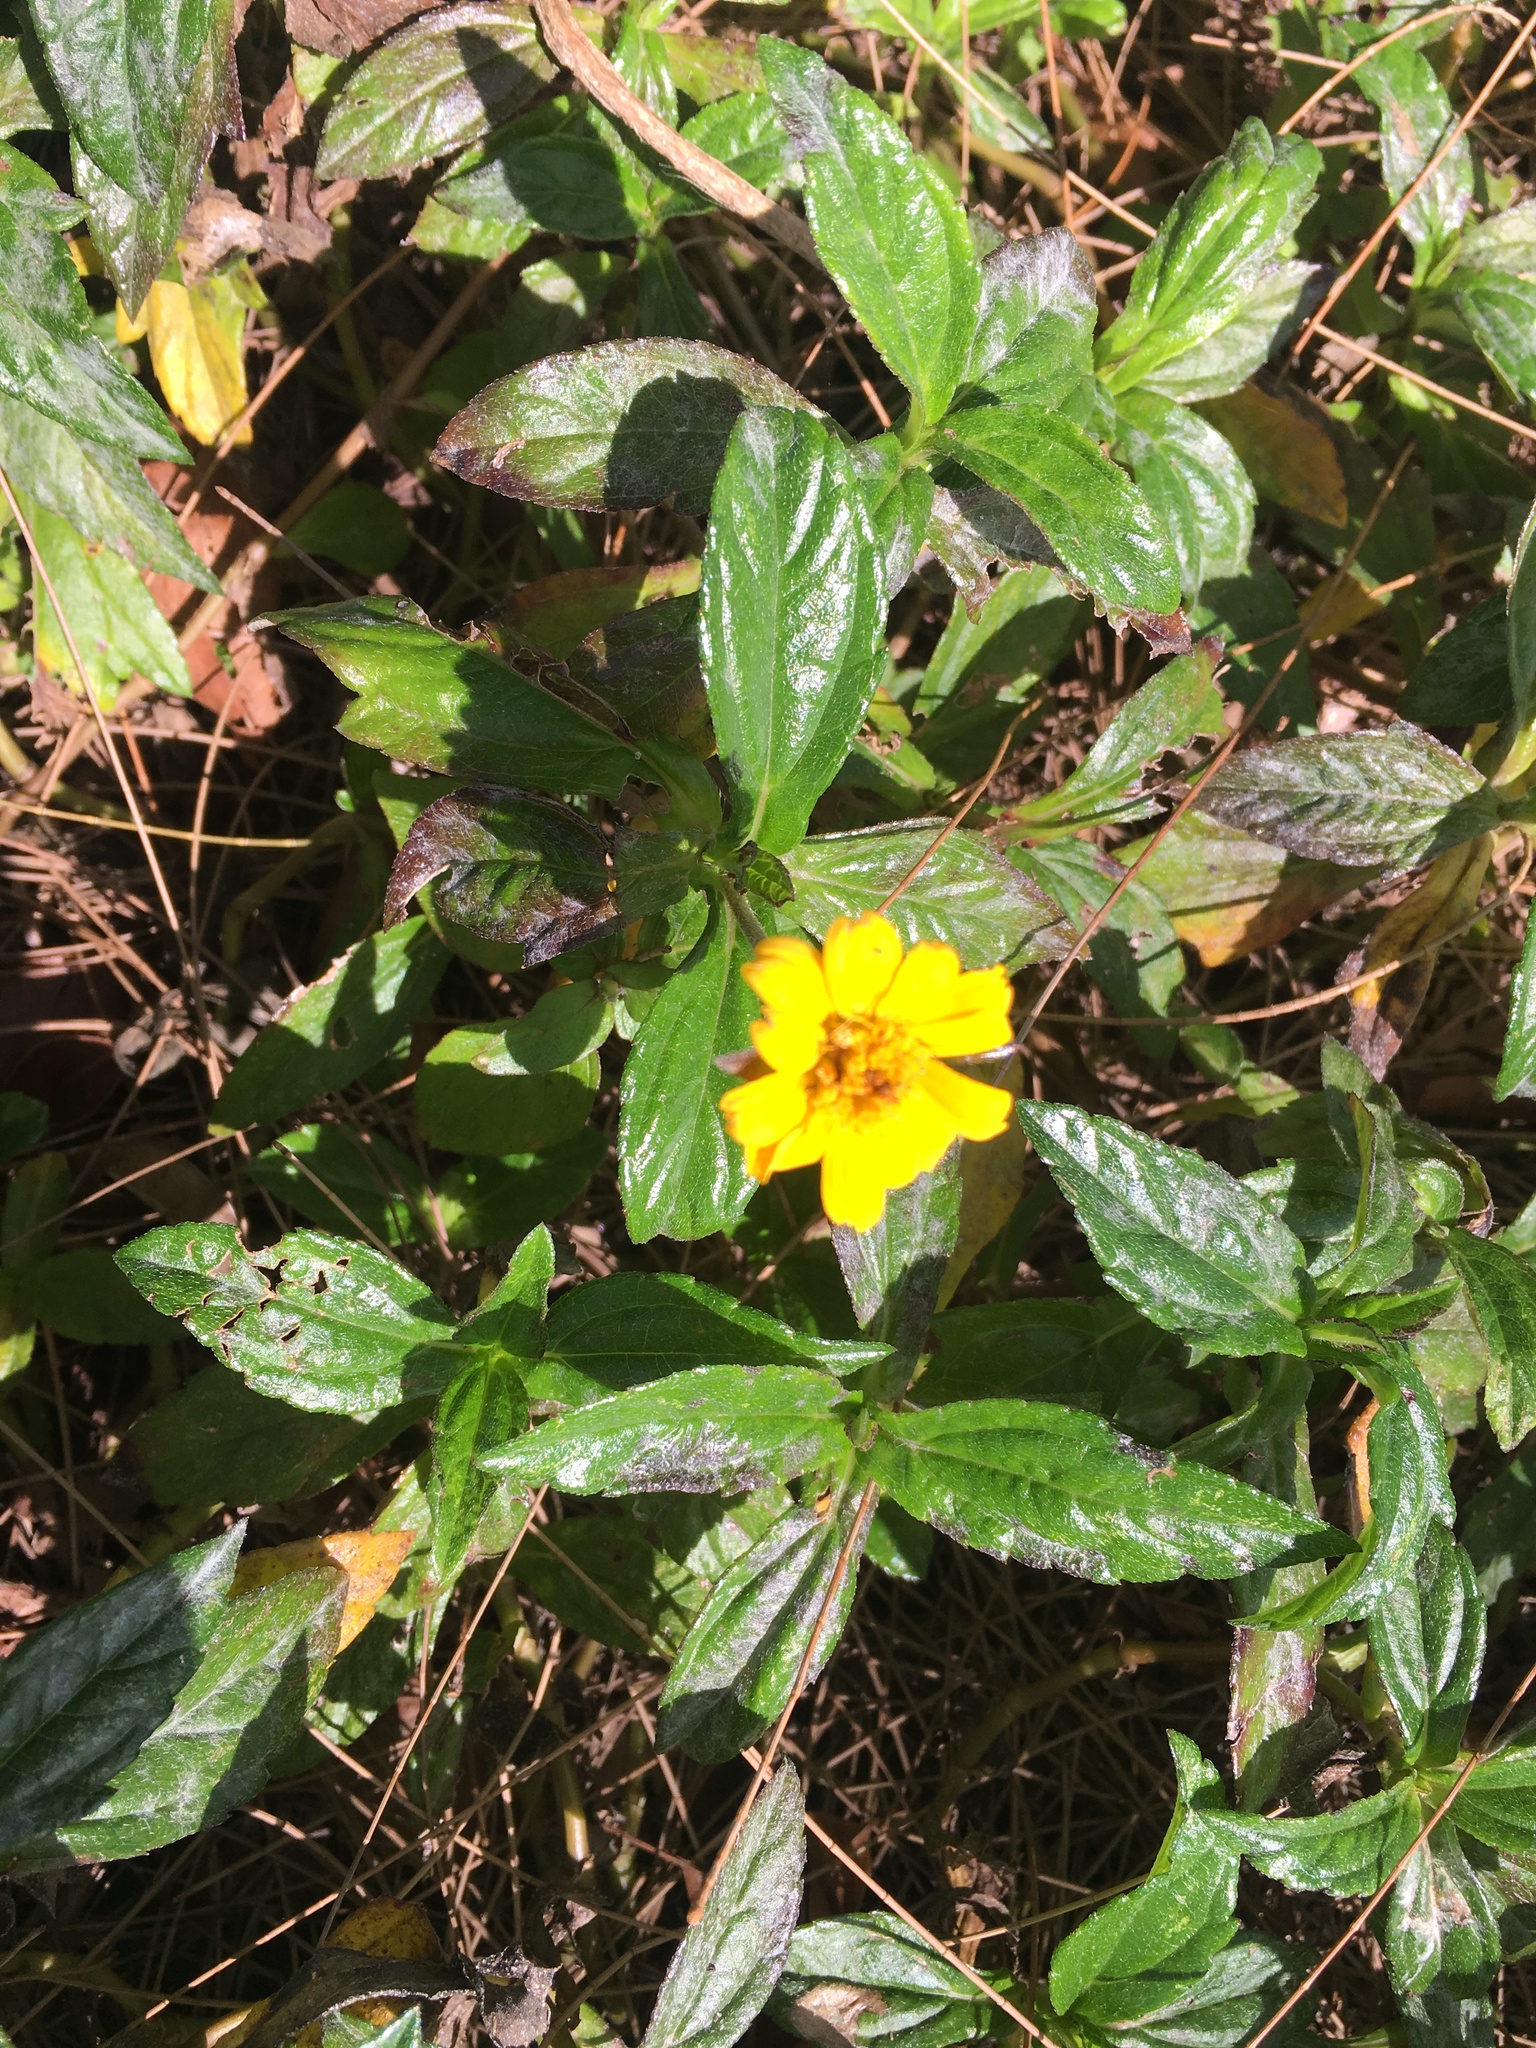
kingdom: Plantae
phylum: Tracheophyta
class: Magnoliopsida
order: Asterales
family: Asteraceae
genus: Sphagneticola
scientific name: Sphagneticola trilobata
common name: Bay biscayne creeping-oxeye
